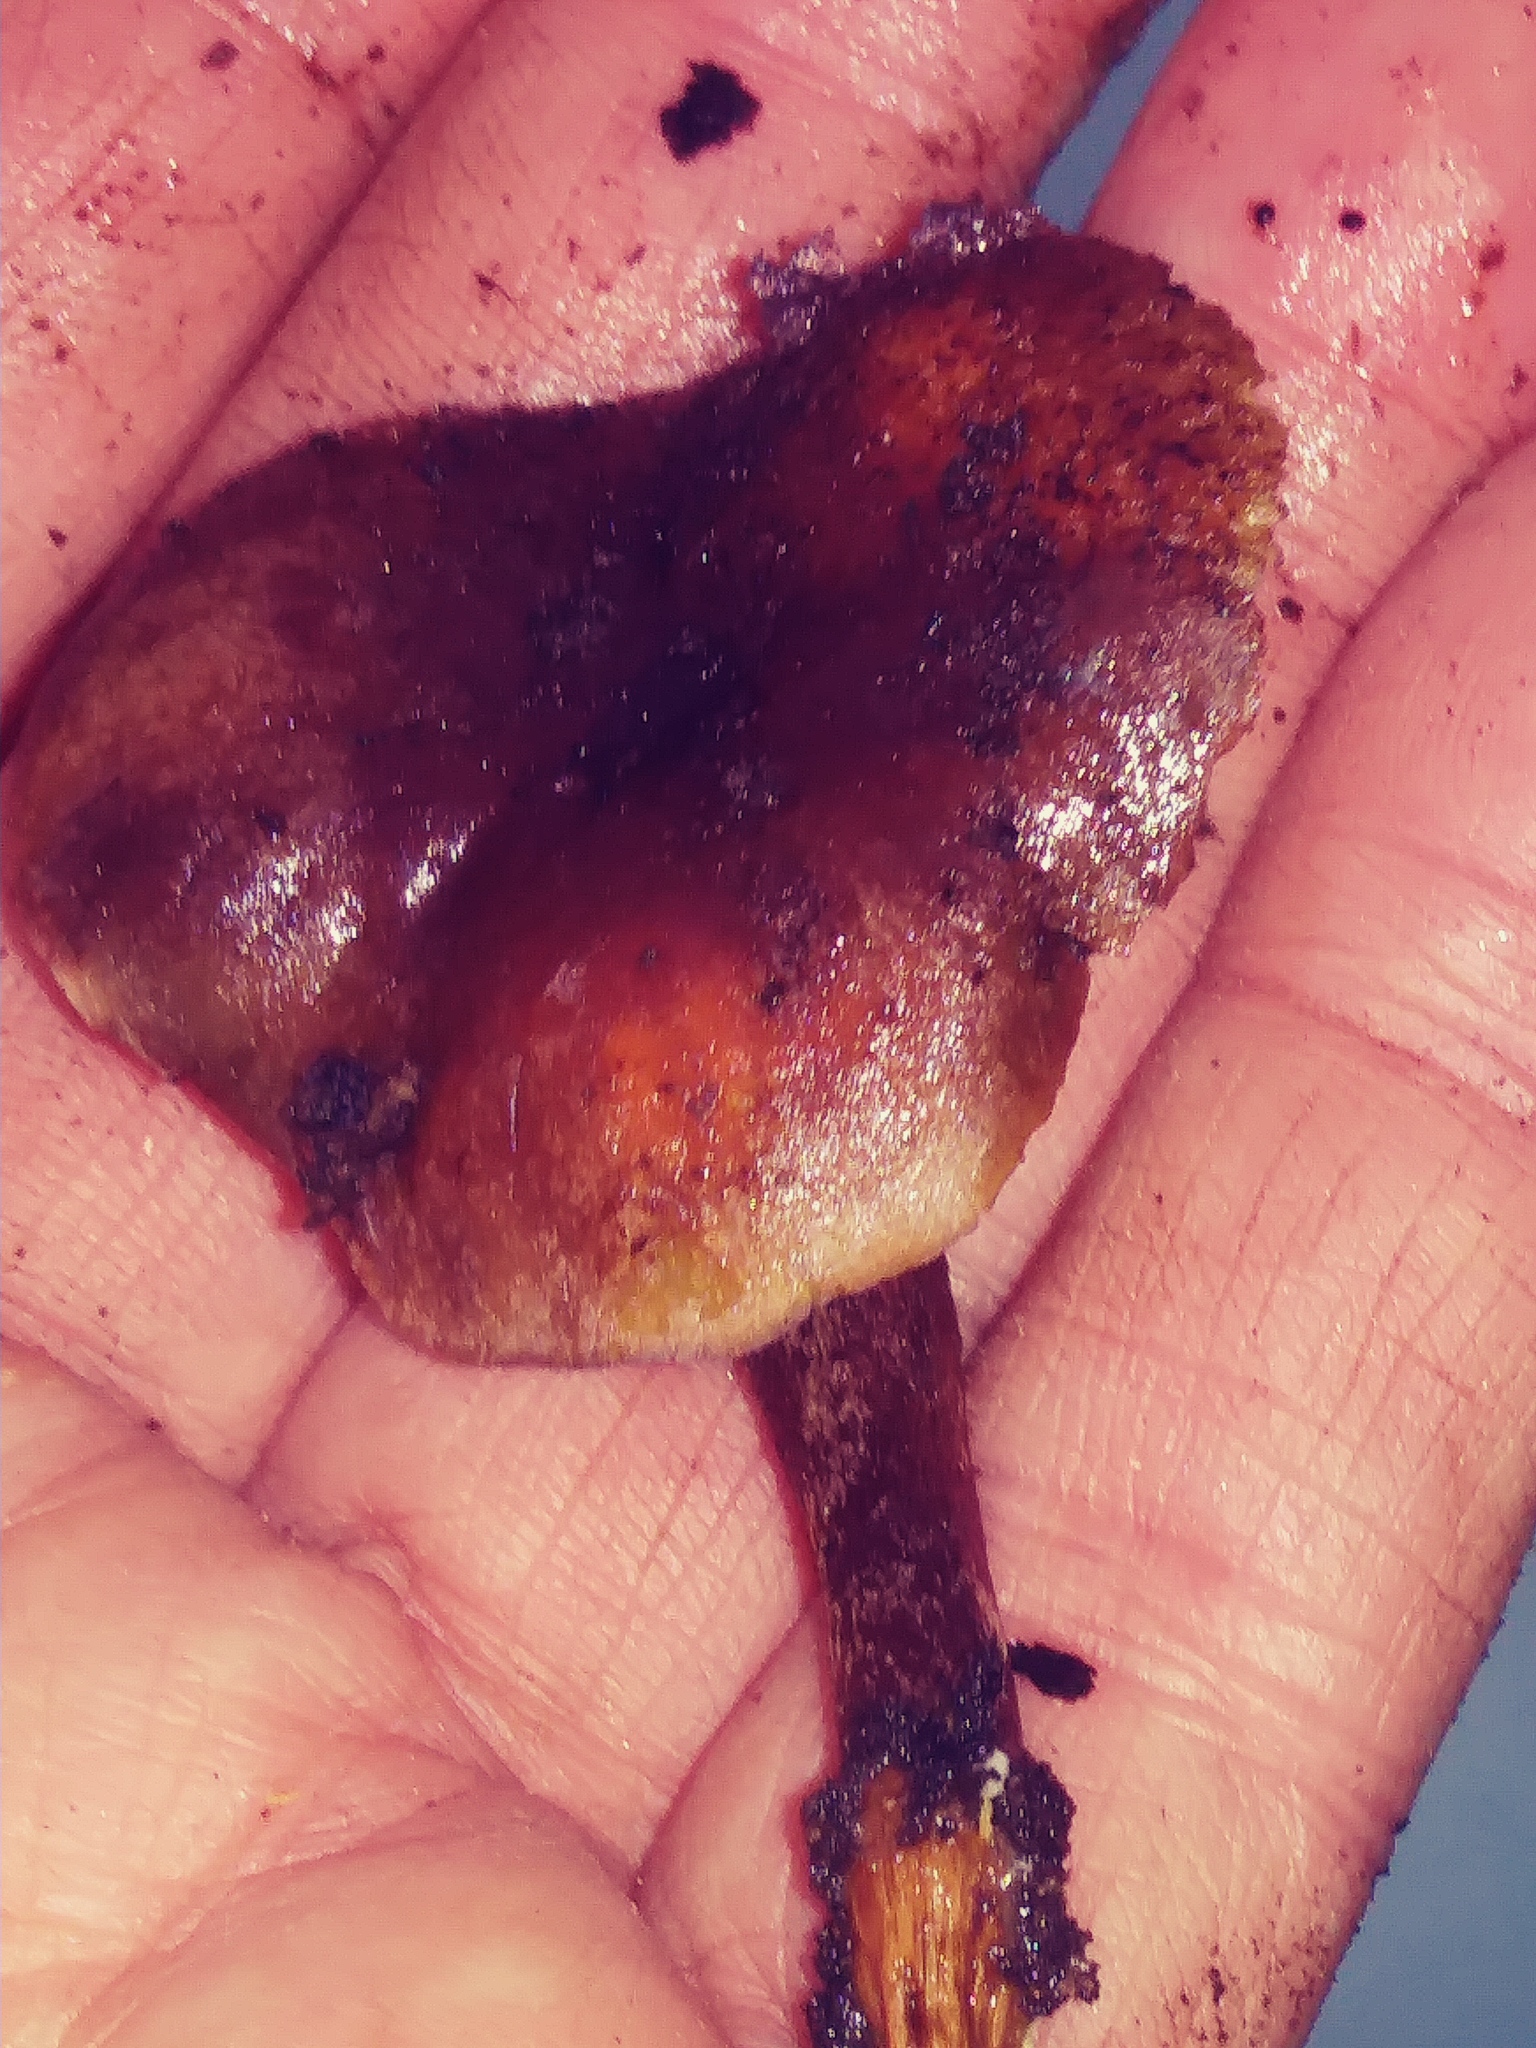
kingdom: Fungi
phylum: Basidiomycota
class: Agaricomycetes
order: Agaricales
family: Strophariaceae
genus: Hypholoma
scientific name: Hypholoma lateritium
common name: Brick caps
